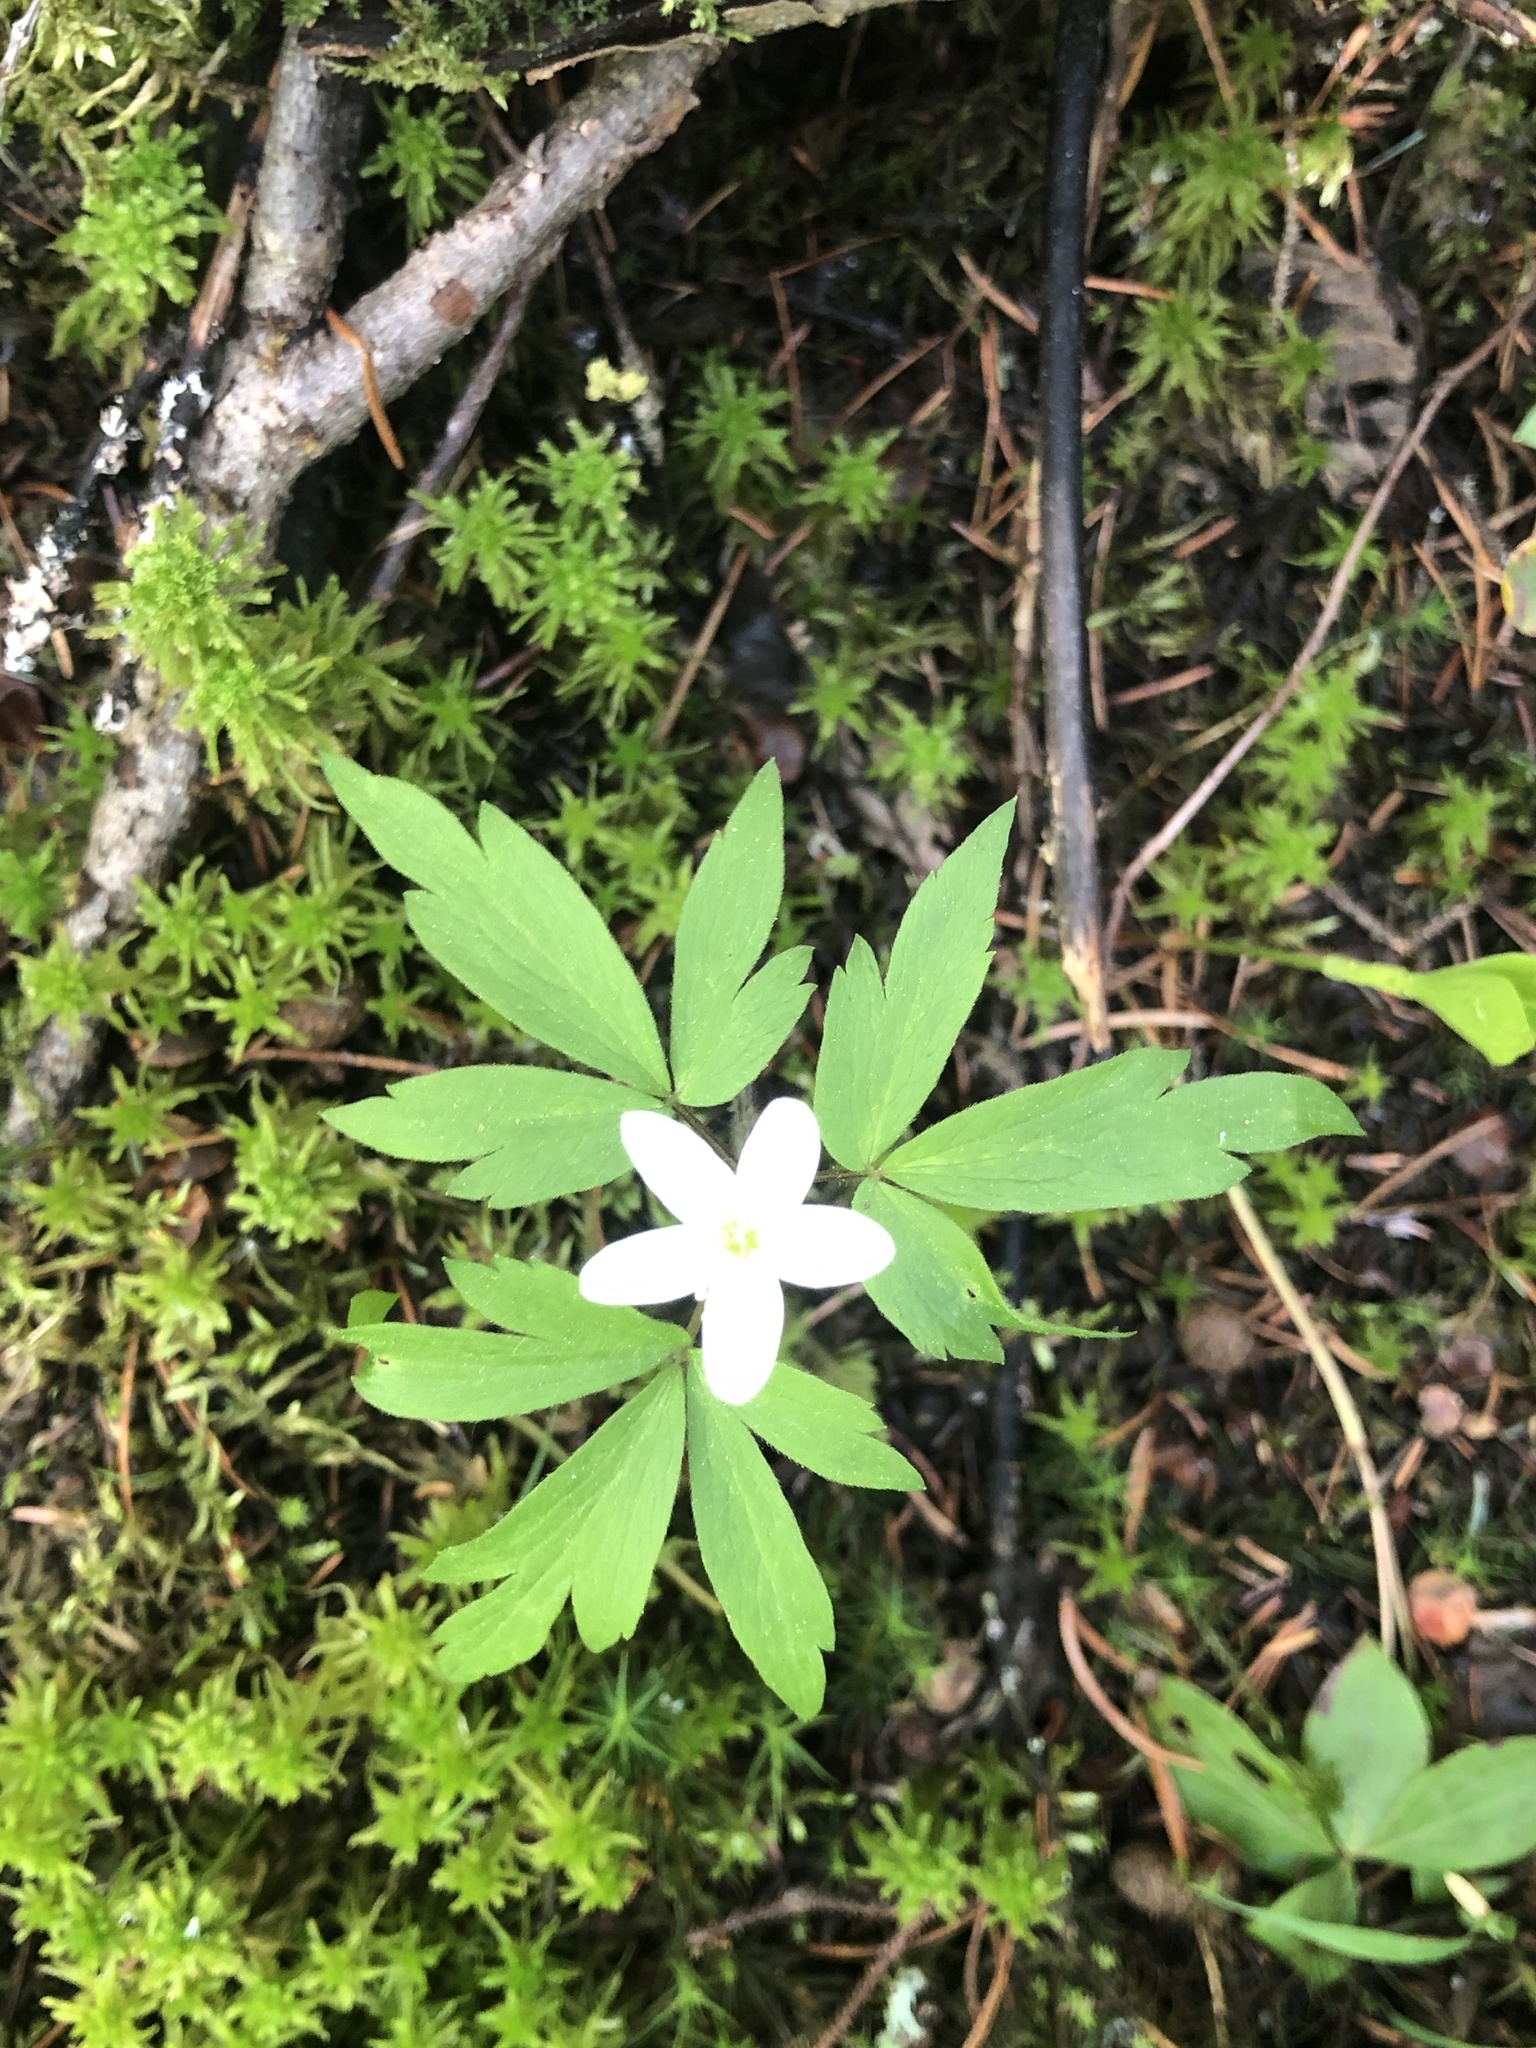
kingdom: Plantae
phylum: Tracheophyta
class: Magnoliopsida
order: Ranunculales
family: Ranunculaceae
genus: Anemone
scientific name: Anemone quinquefolia
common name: Wood anemone
